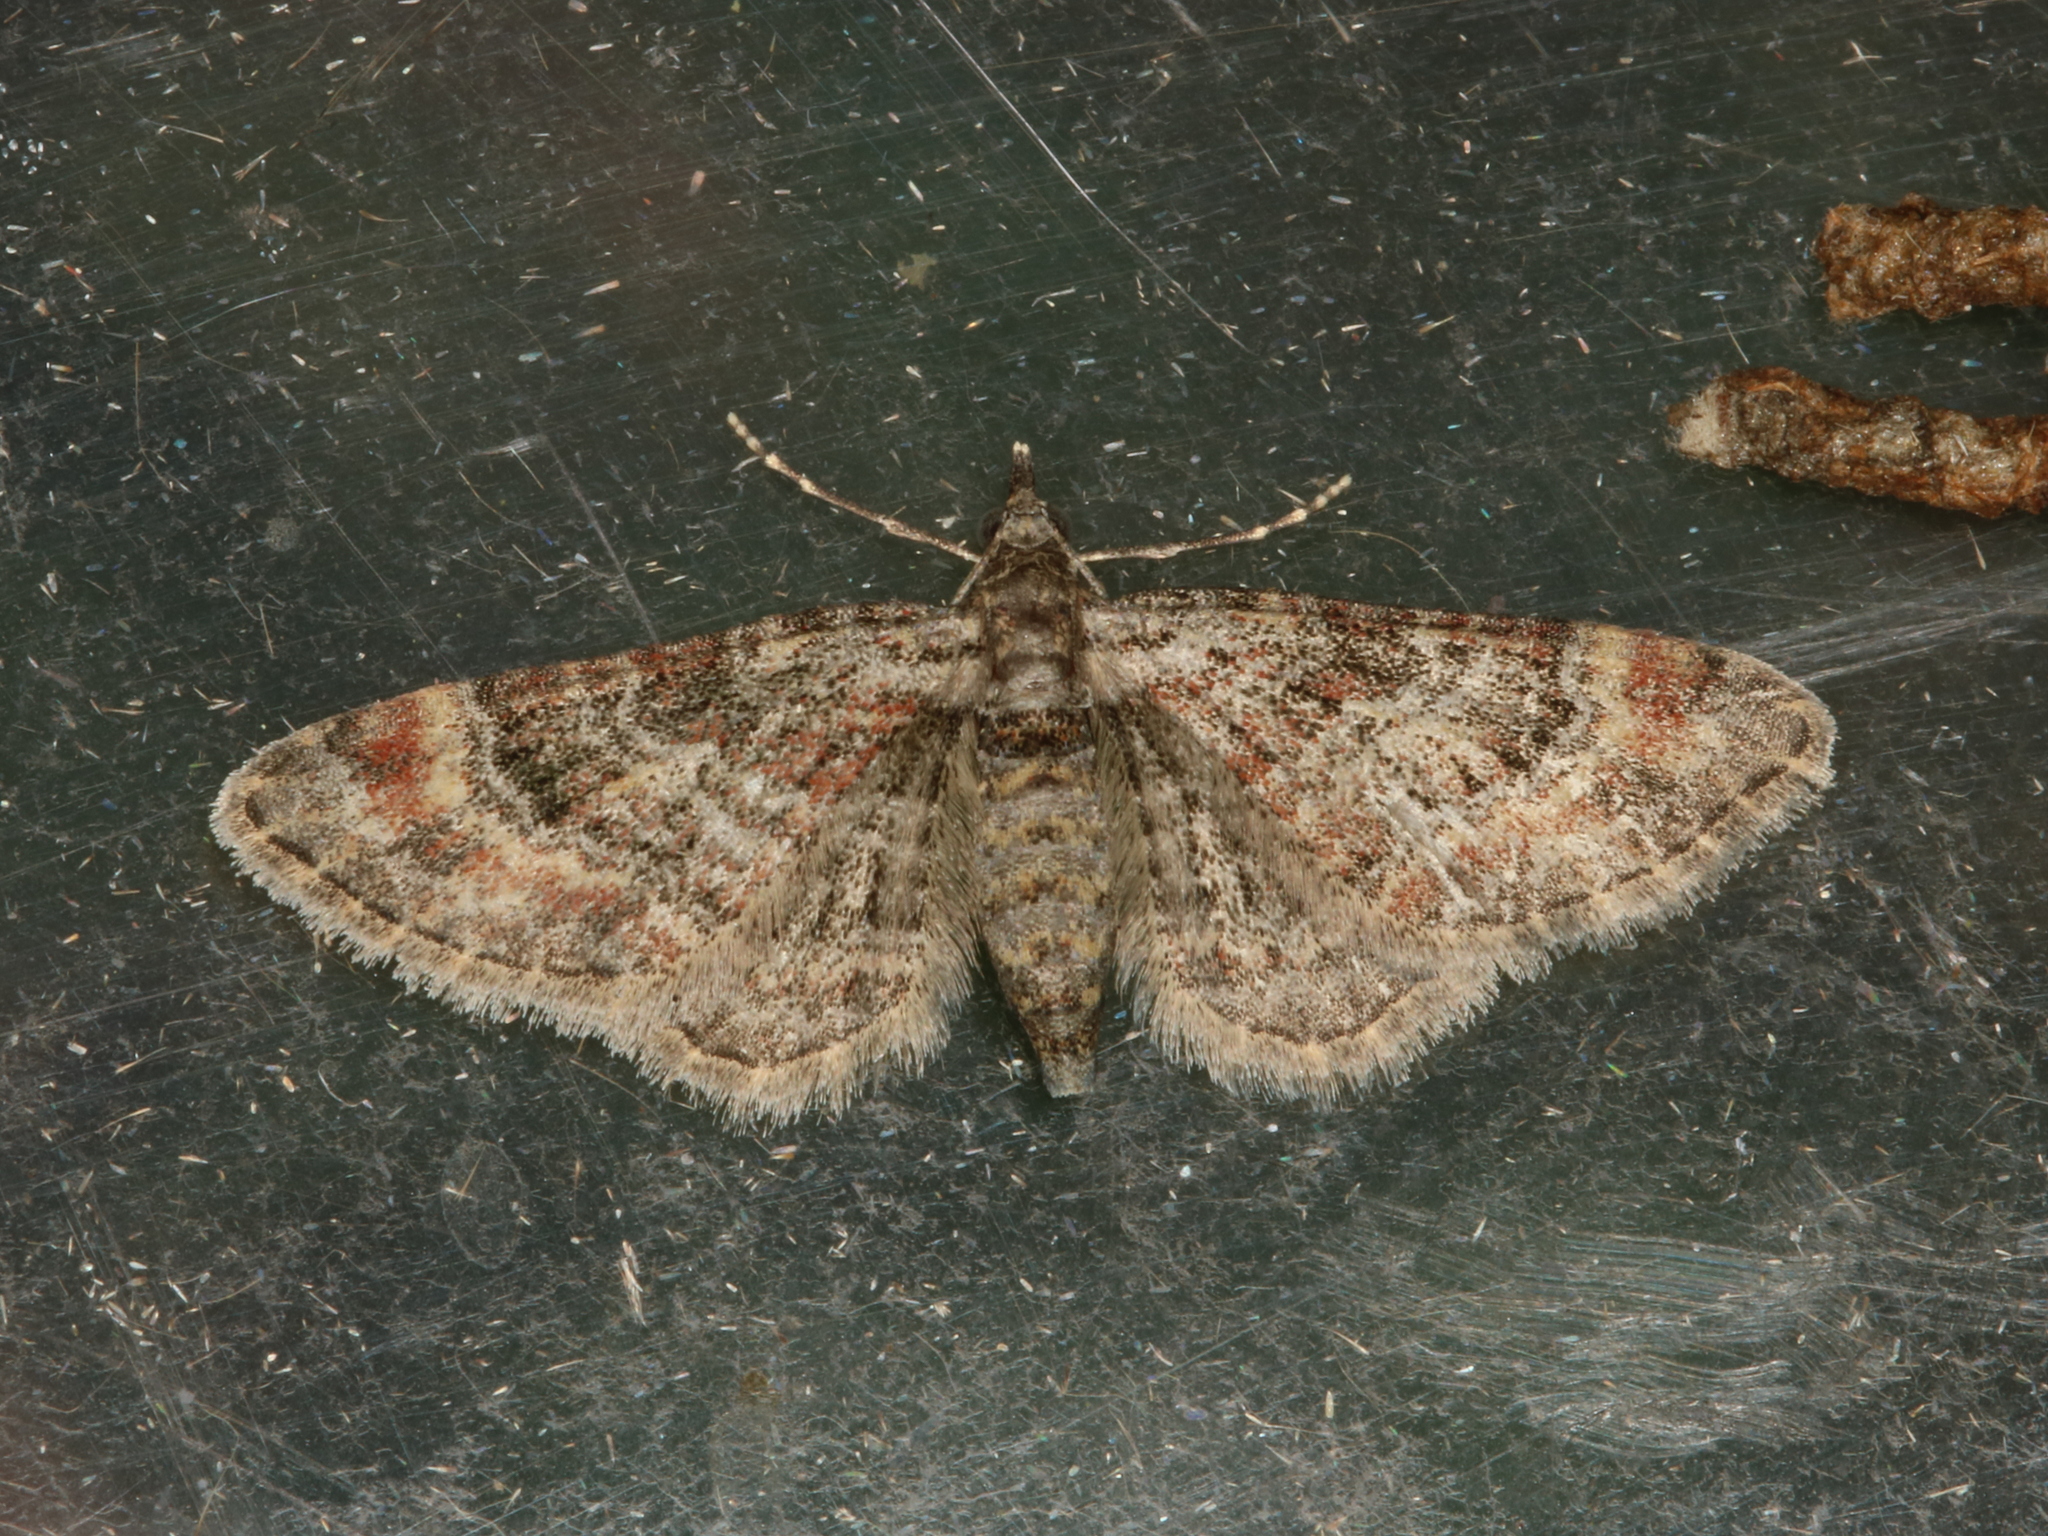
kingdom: Animalia
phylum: Arthropoda
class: Insecta
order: Lepidoptera
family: Geometridae
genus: Gymnoscelis
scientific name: Gymnoscelis rufifasciata
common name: Double-striped pug
